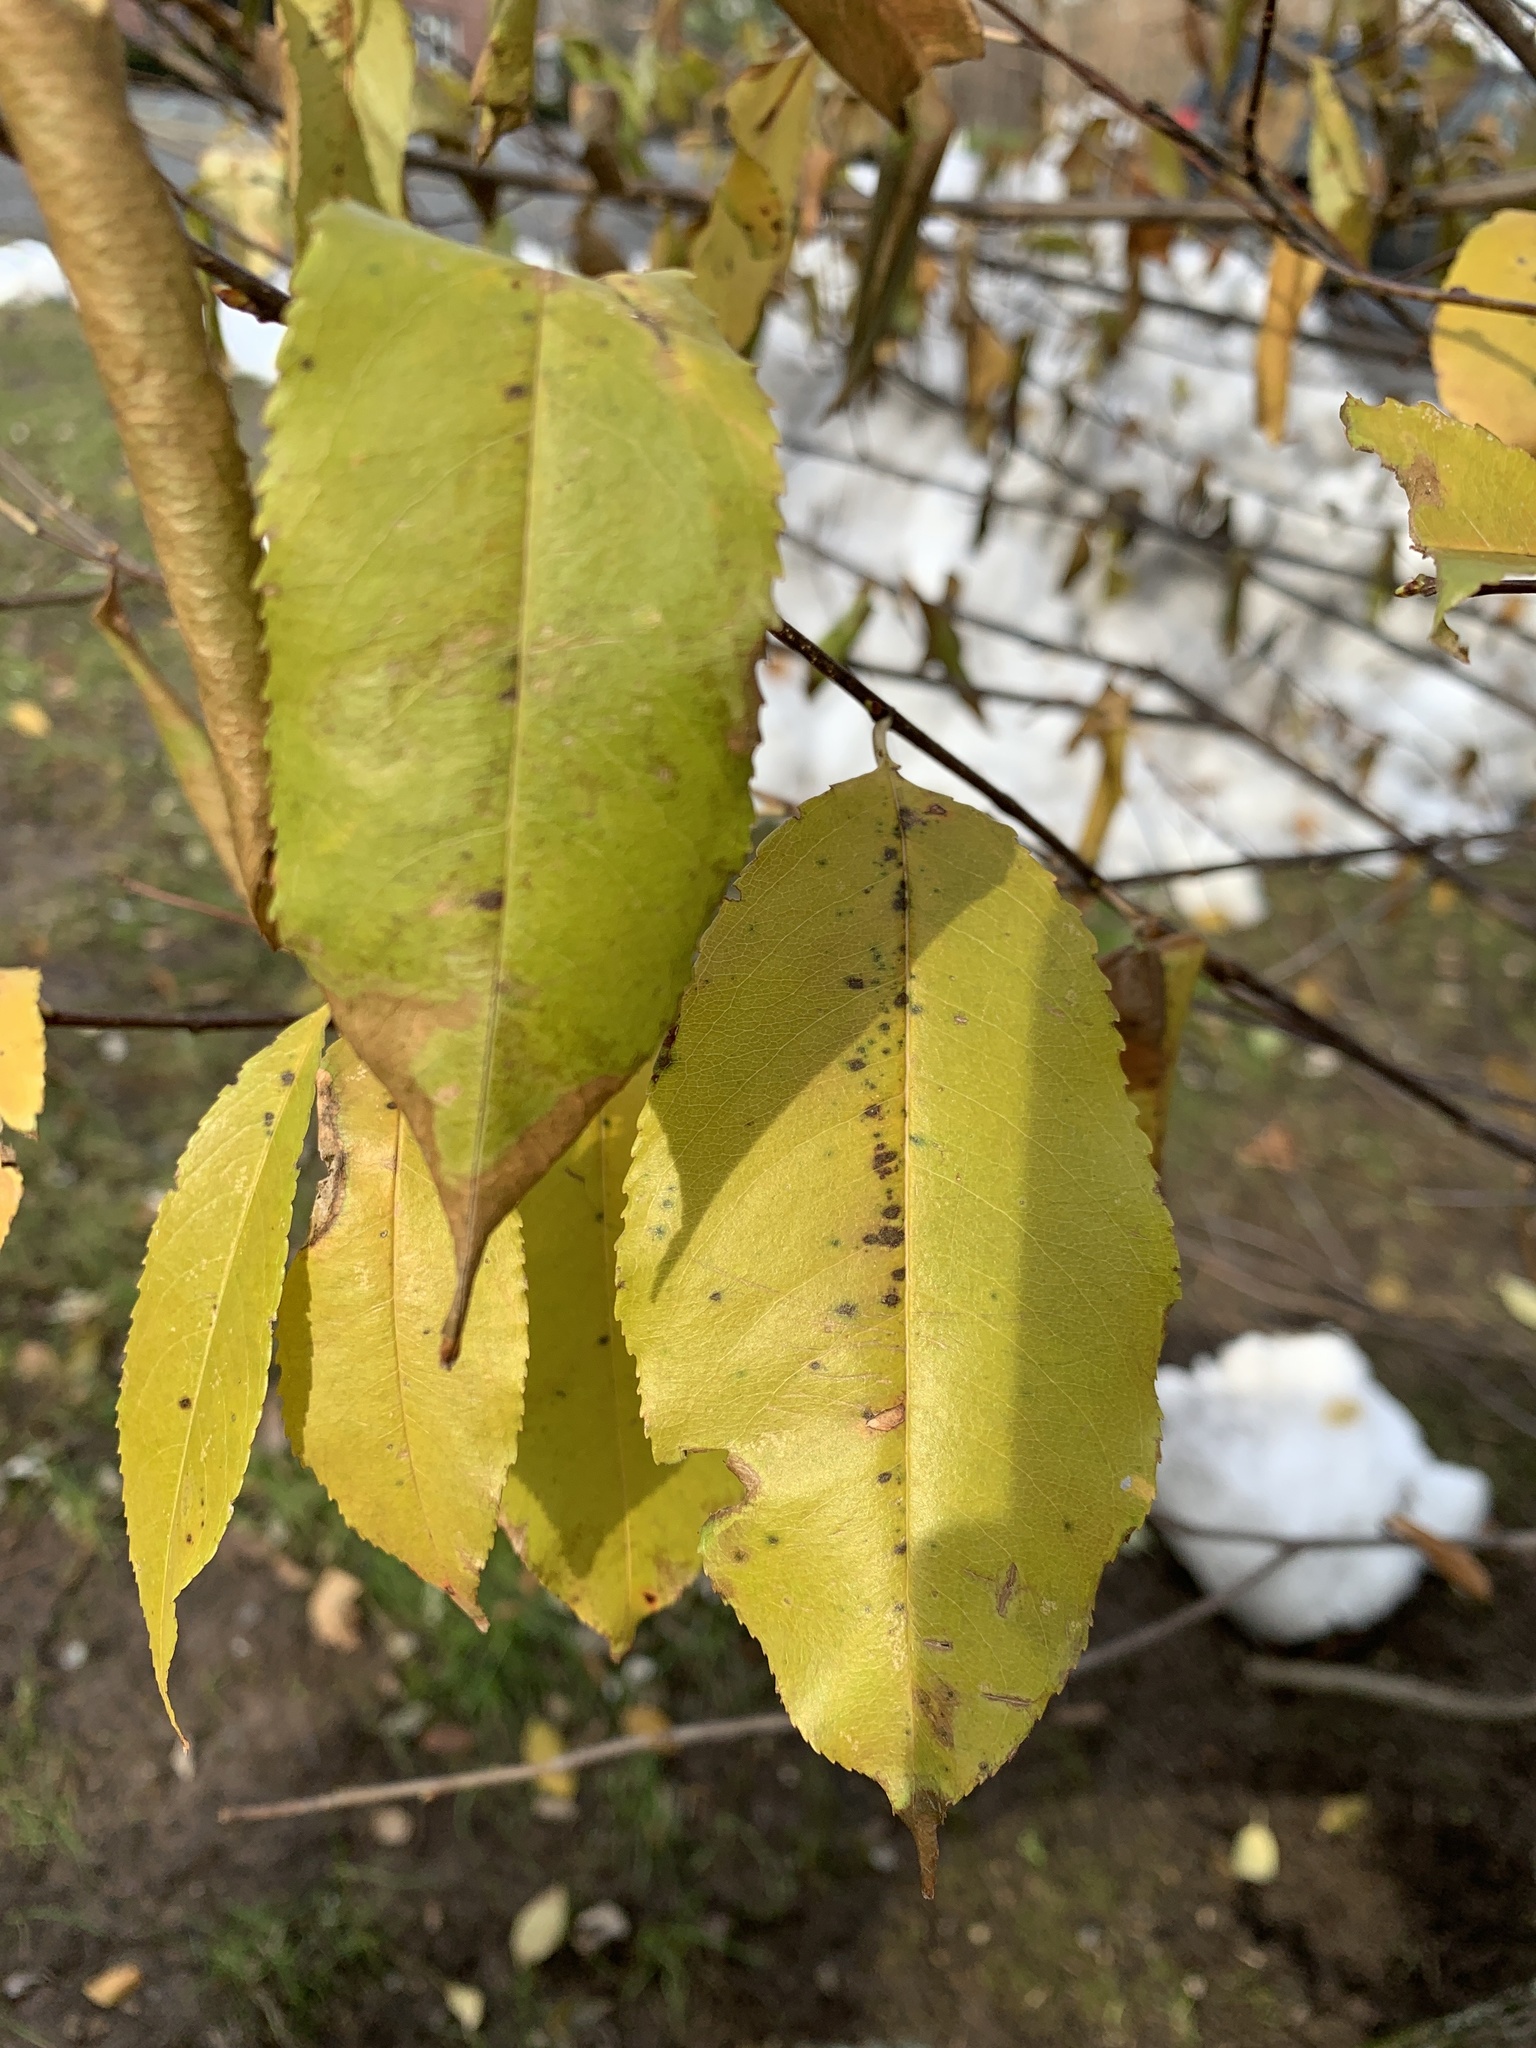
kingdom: Plantae
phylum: Tracheophyta
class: Magnoliopsida
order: Rosales
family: Rosaceae
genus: Prunus
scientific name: Prunus serotina
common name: Black cherry
